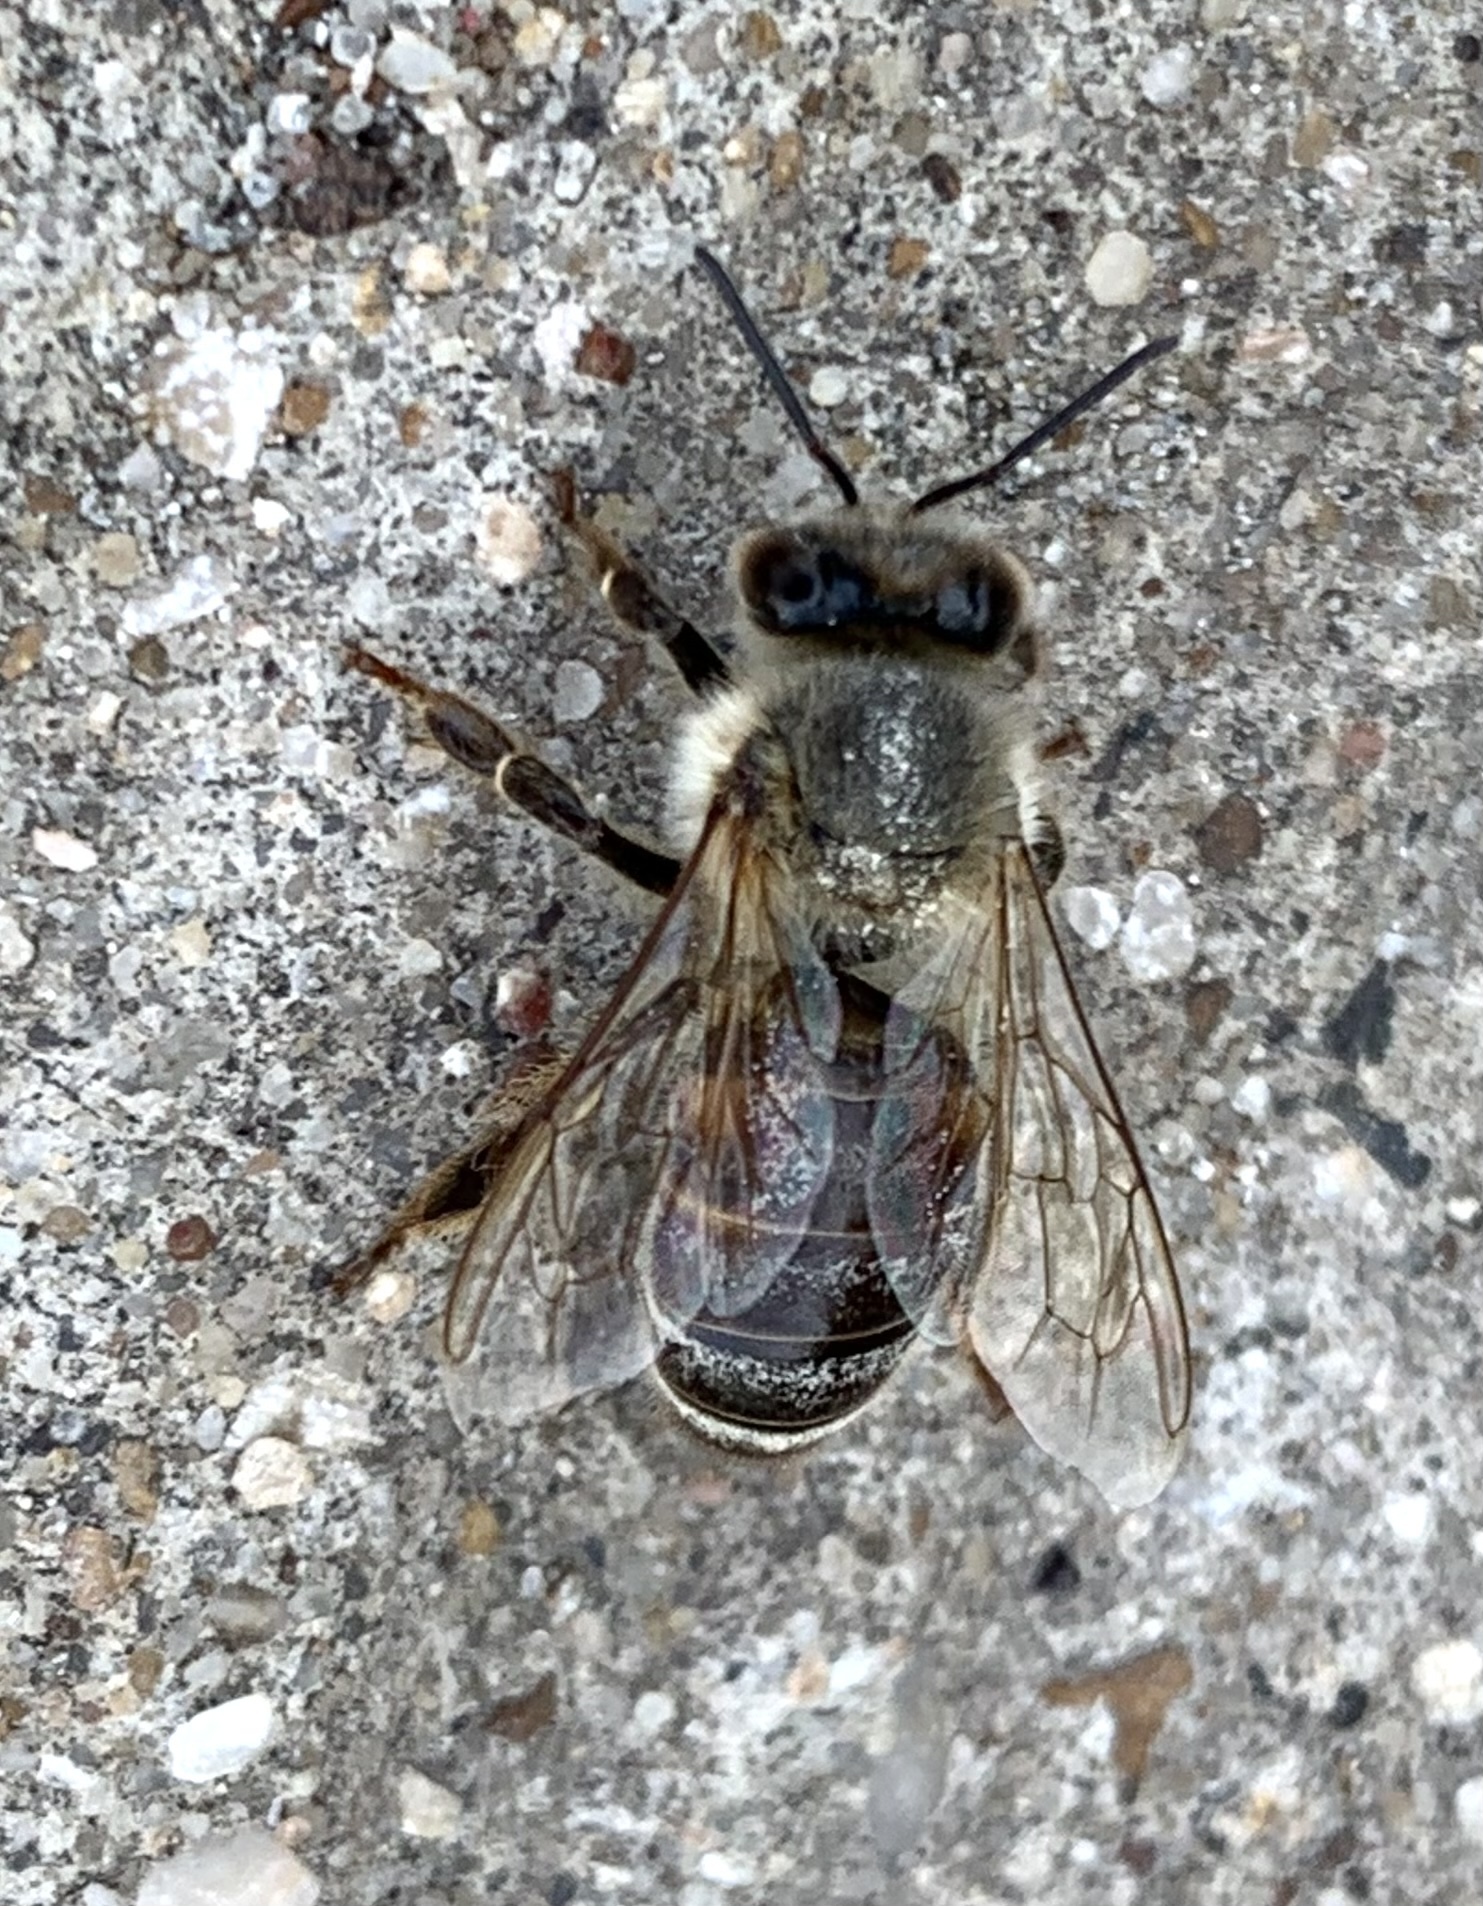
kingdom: Animalia
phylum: Arthropoda
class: Insecta
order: Hymenoptera
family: Apidae
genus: Apis
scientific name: Apis mellifera
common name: Honey bee
